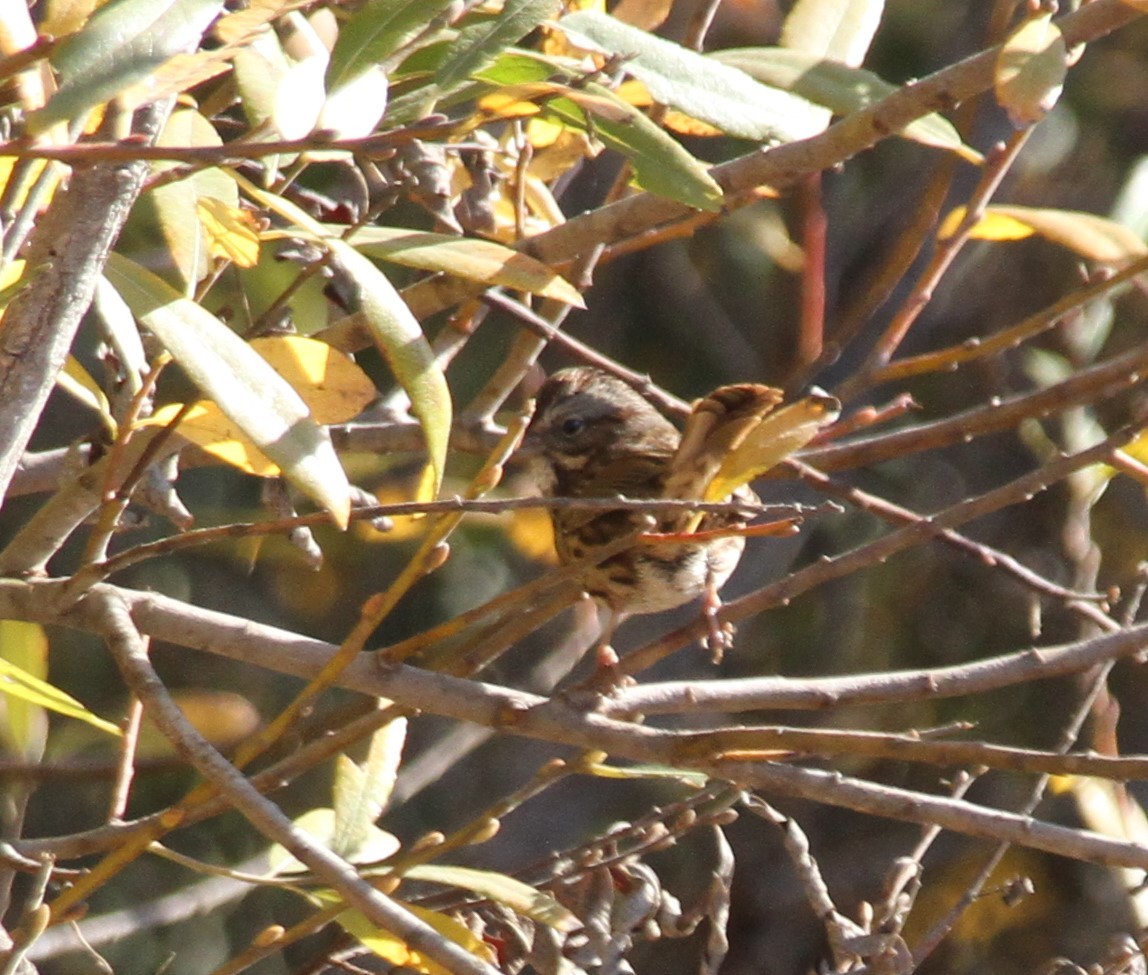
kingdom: Animalia
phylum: Chordata
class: Aves
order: Passeriformes
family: Passerellidae
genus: Melospiza
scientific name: Melospiza melodia
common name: Song sparrow
